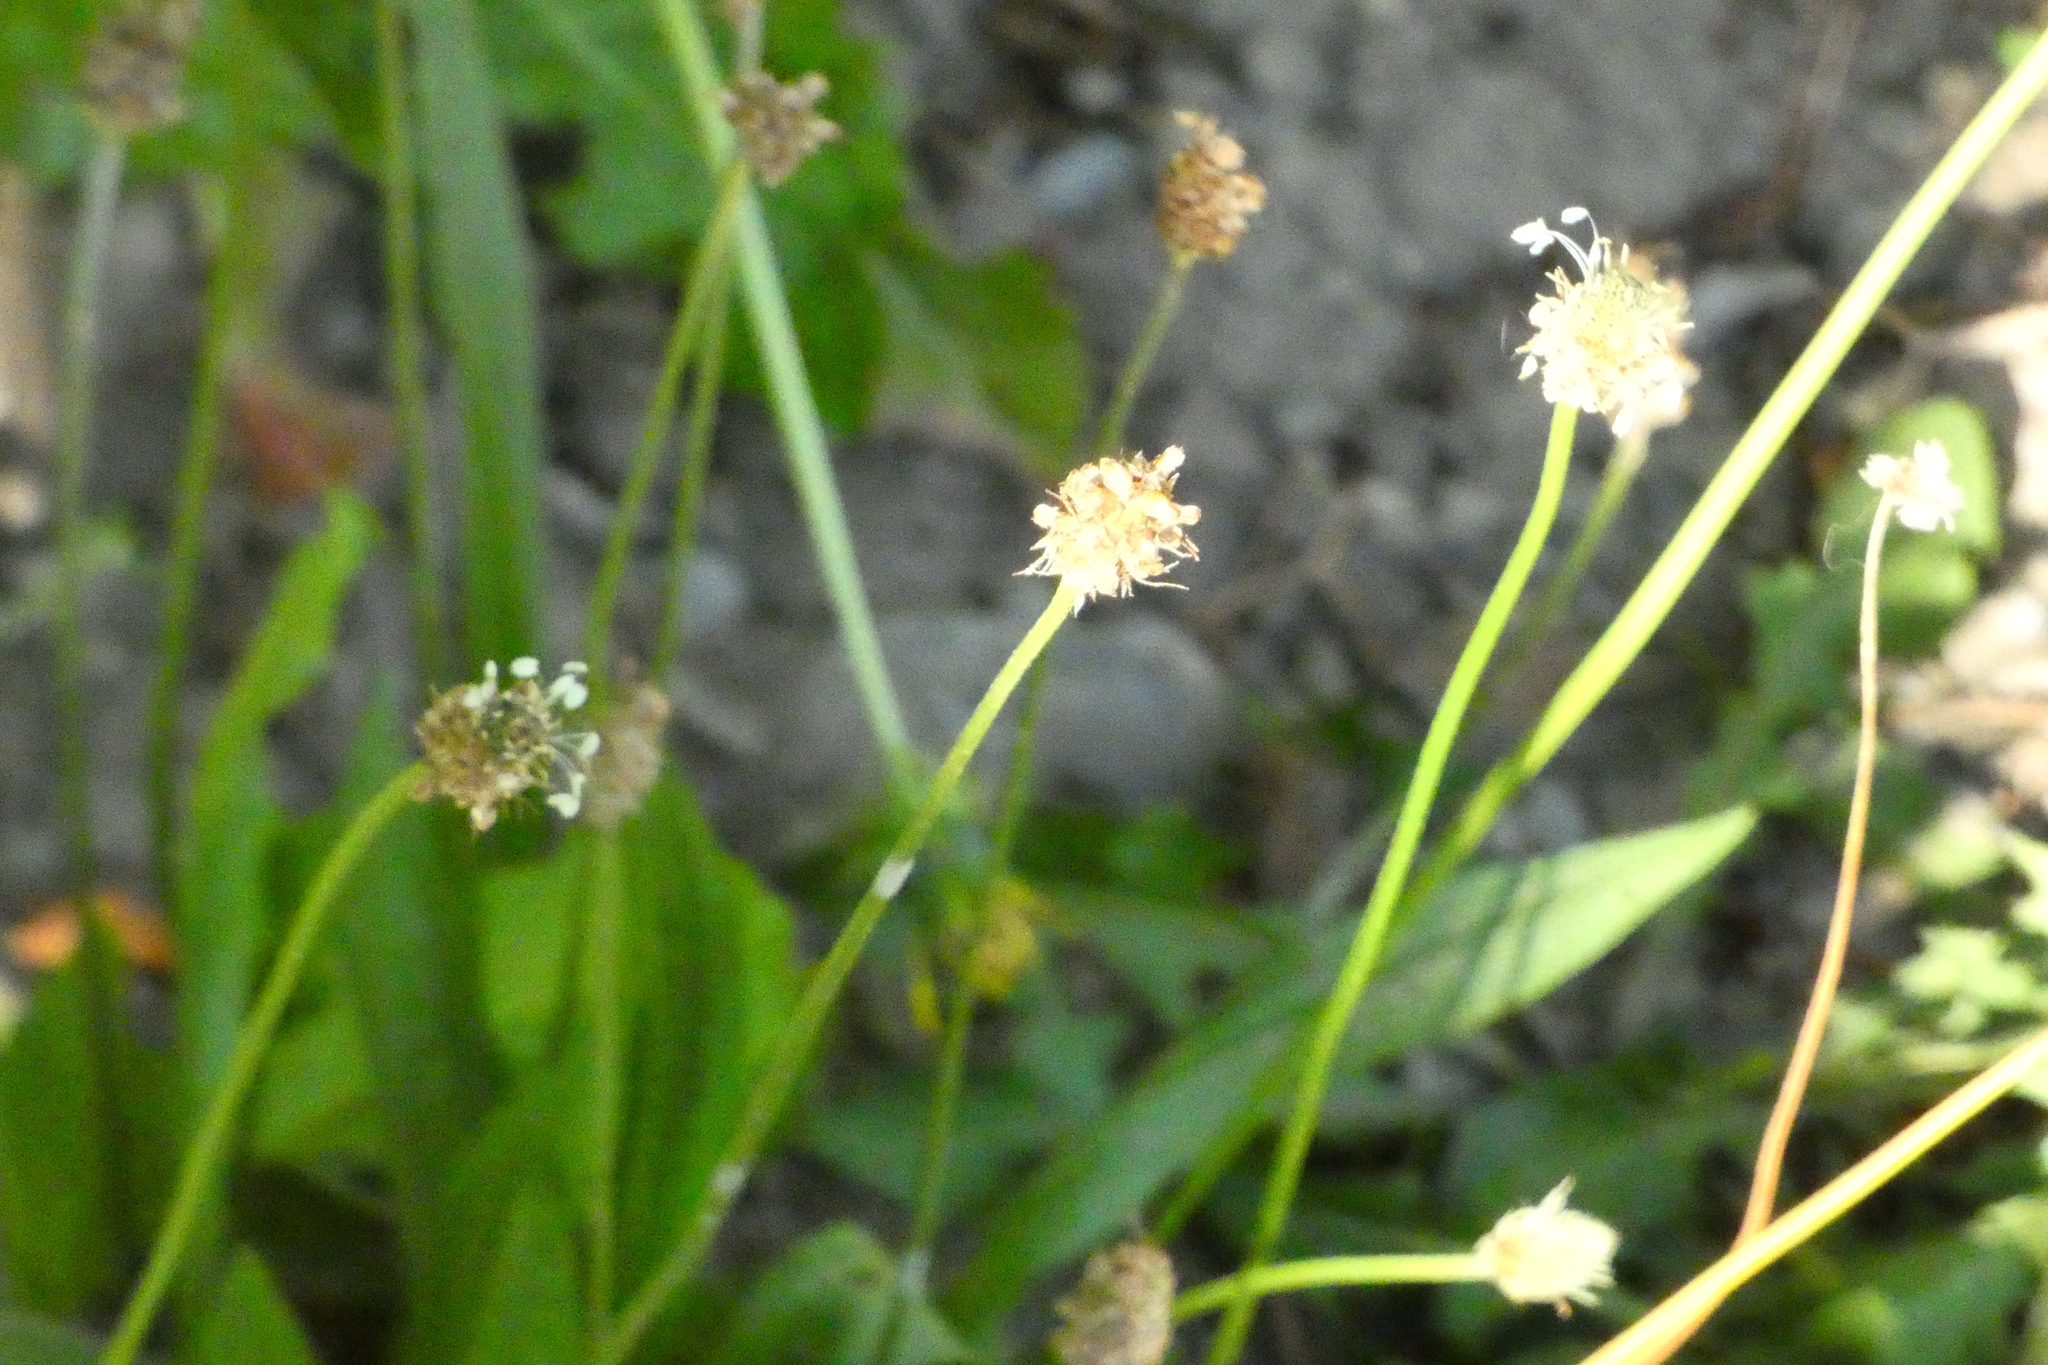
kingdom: Plantae
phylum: Tracheophyta
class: Magnoliopsida
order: Lamiales
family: Plantaginaceae
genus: Plantago
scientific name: Plantago lanceolata
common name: Ribwort plantain
